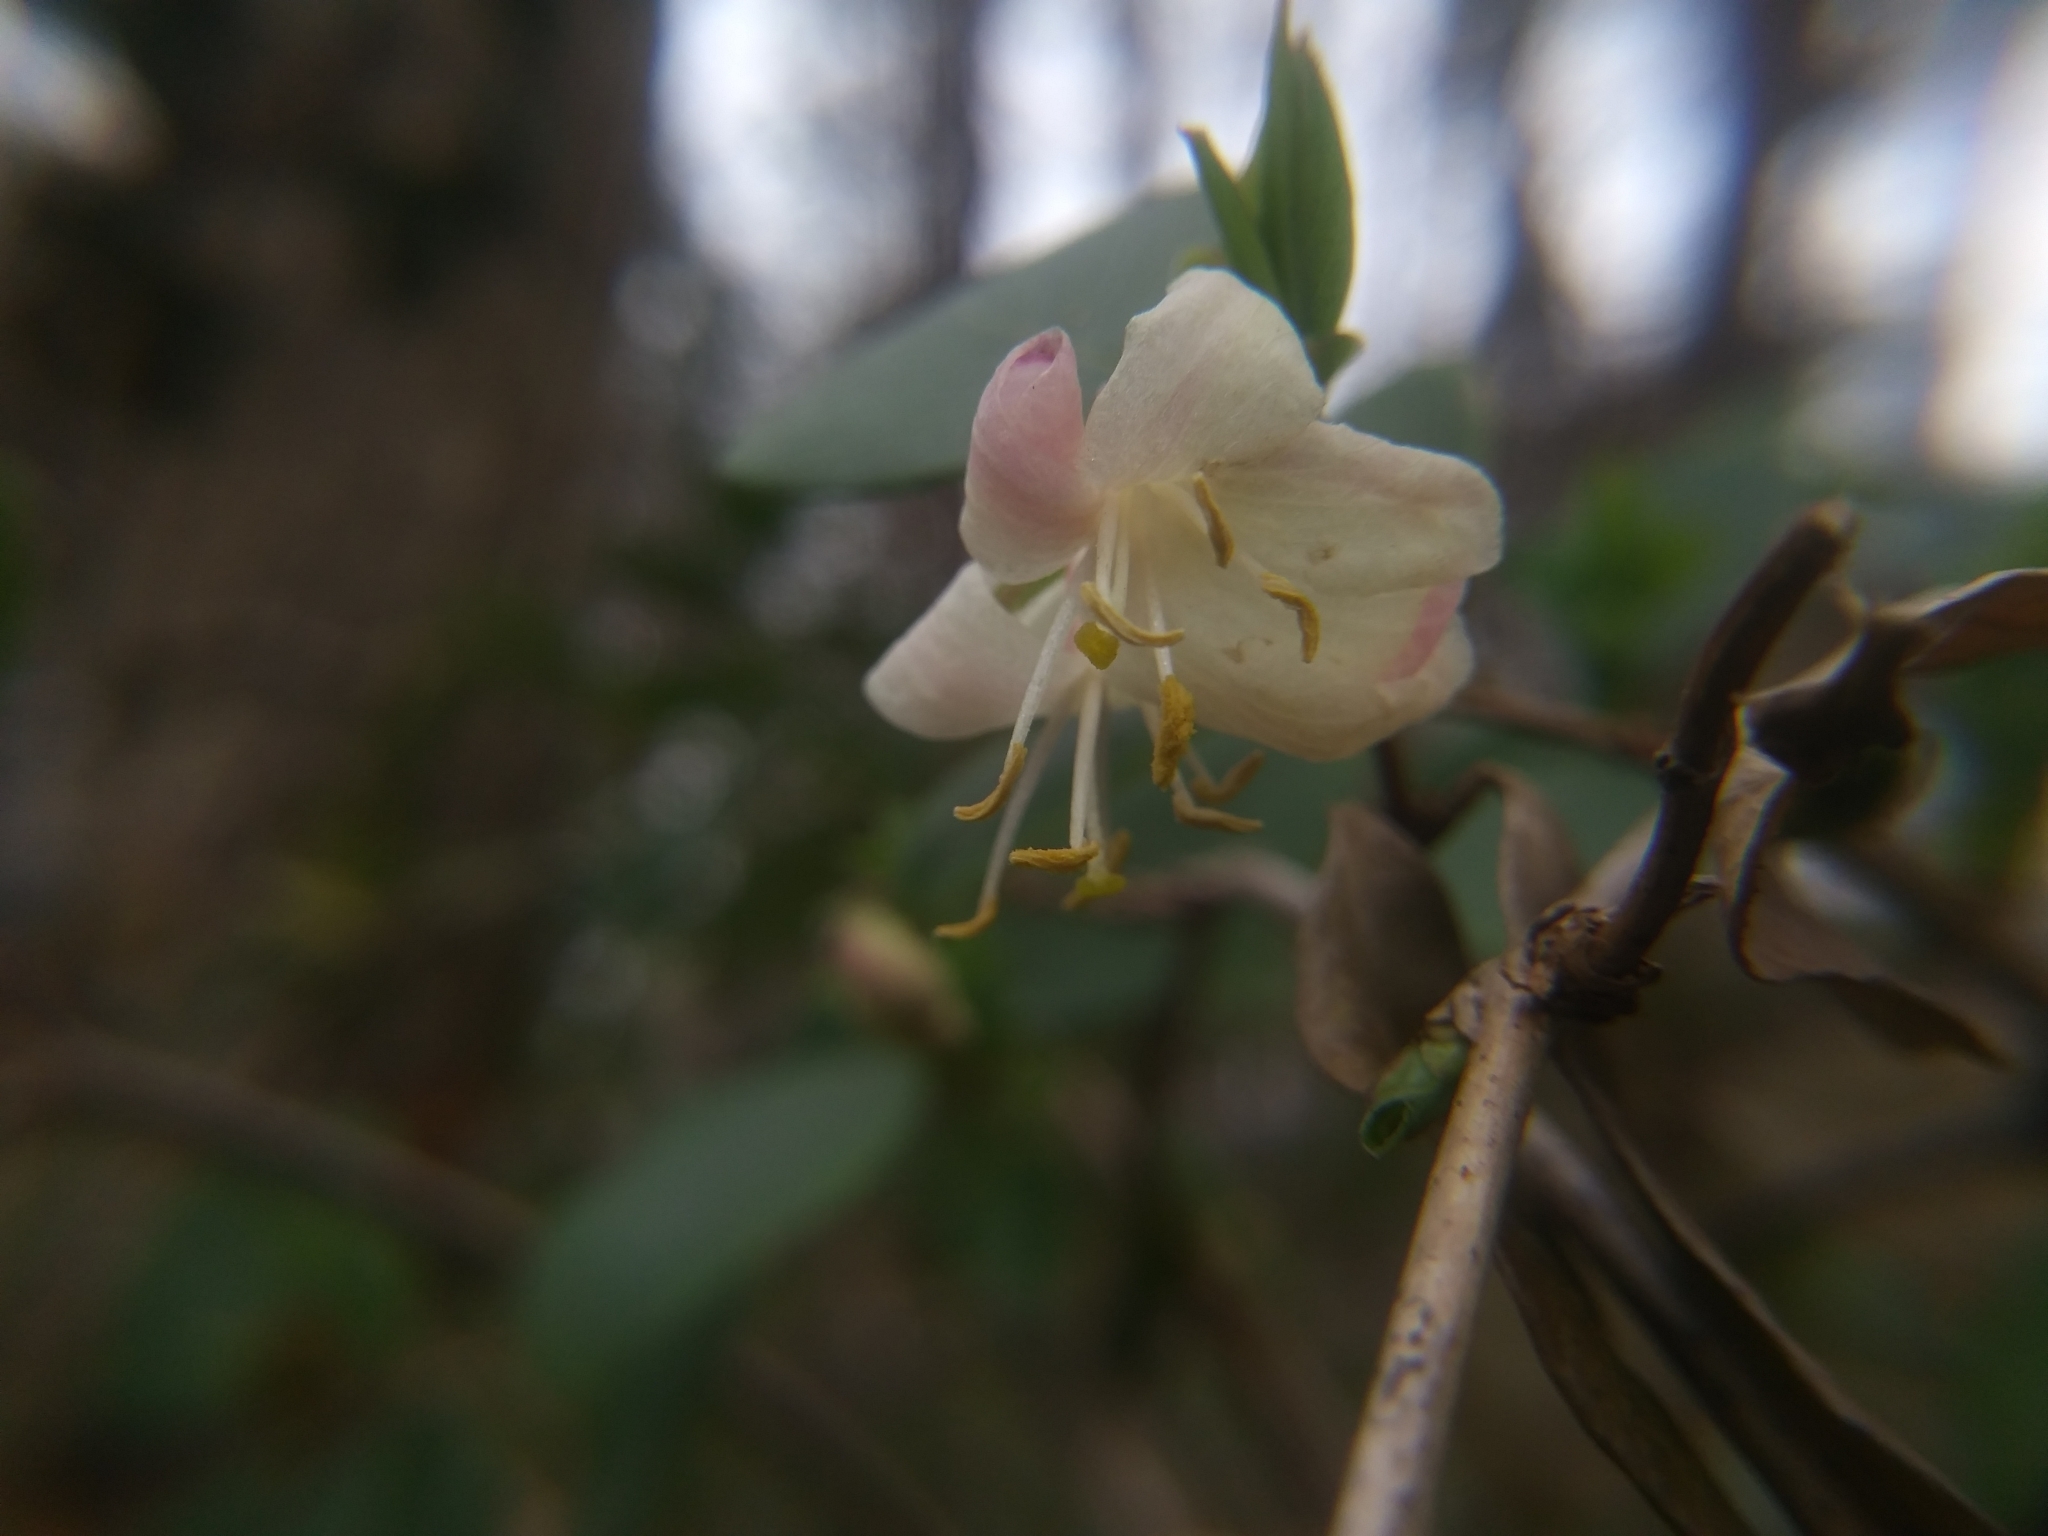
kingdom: Plantae
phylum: Tracheophyta
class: Magnoliopsida
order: Dipsacales
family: Caprifoliaceae
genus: Lonicera
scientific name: Lonicera fragrantissima
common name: Fragrant honeysuckle
